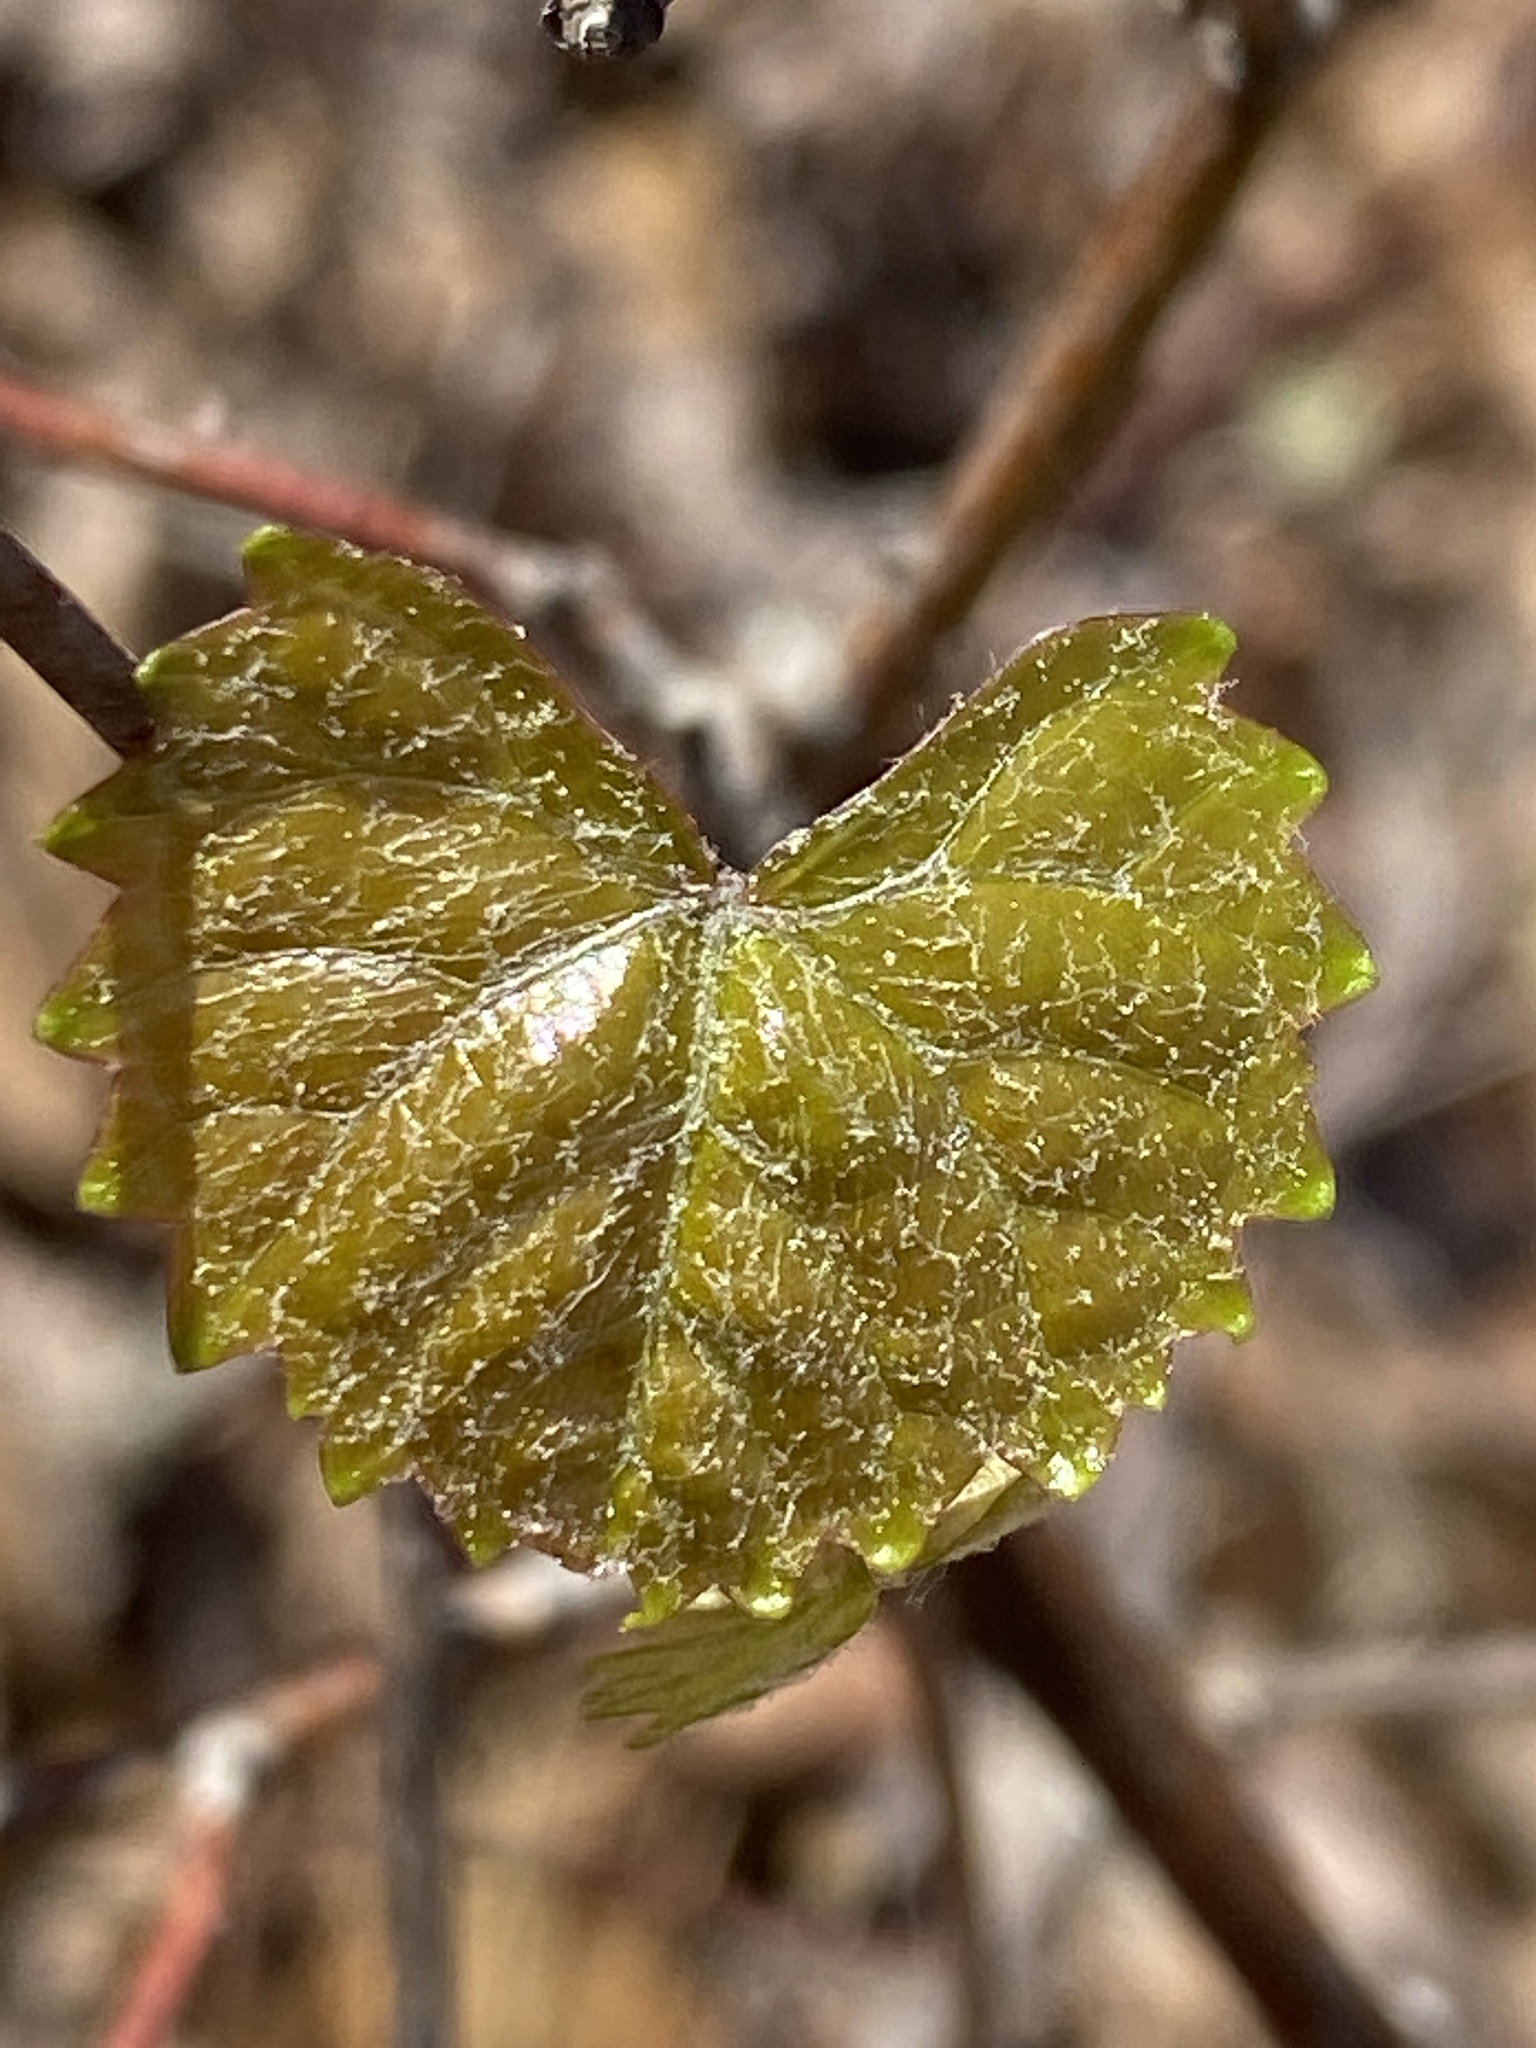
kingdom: Plantae
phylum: Tracheophyta
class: Magnoliopsida
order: Vitales
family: Vitaceae
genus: Vitis
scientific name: Vitis rotundifolia
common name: Muscadine grape
